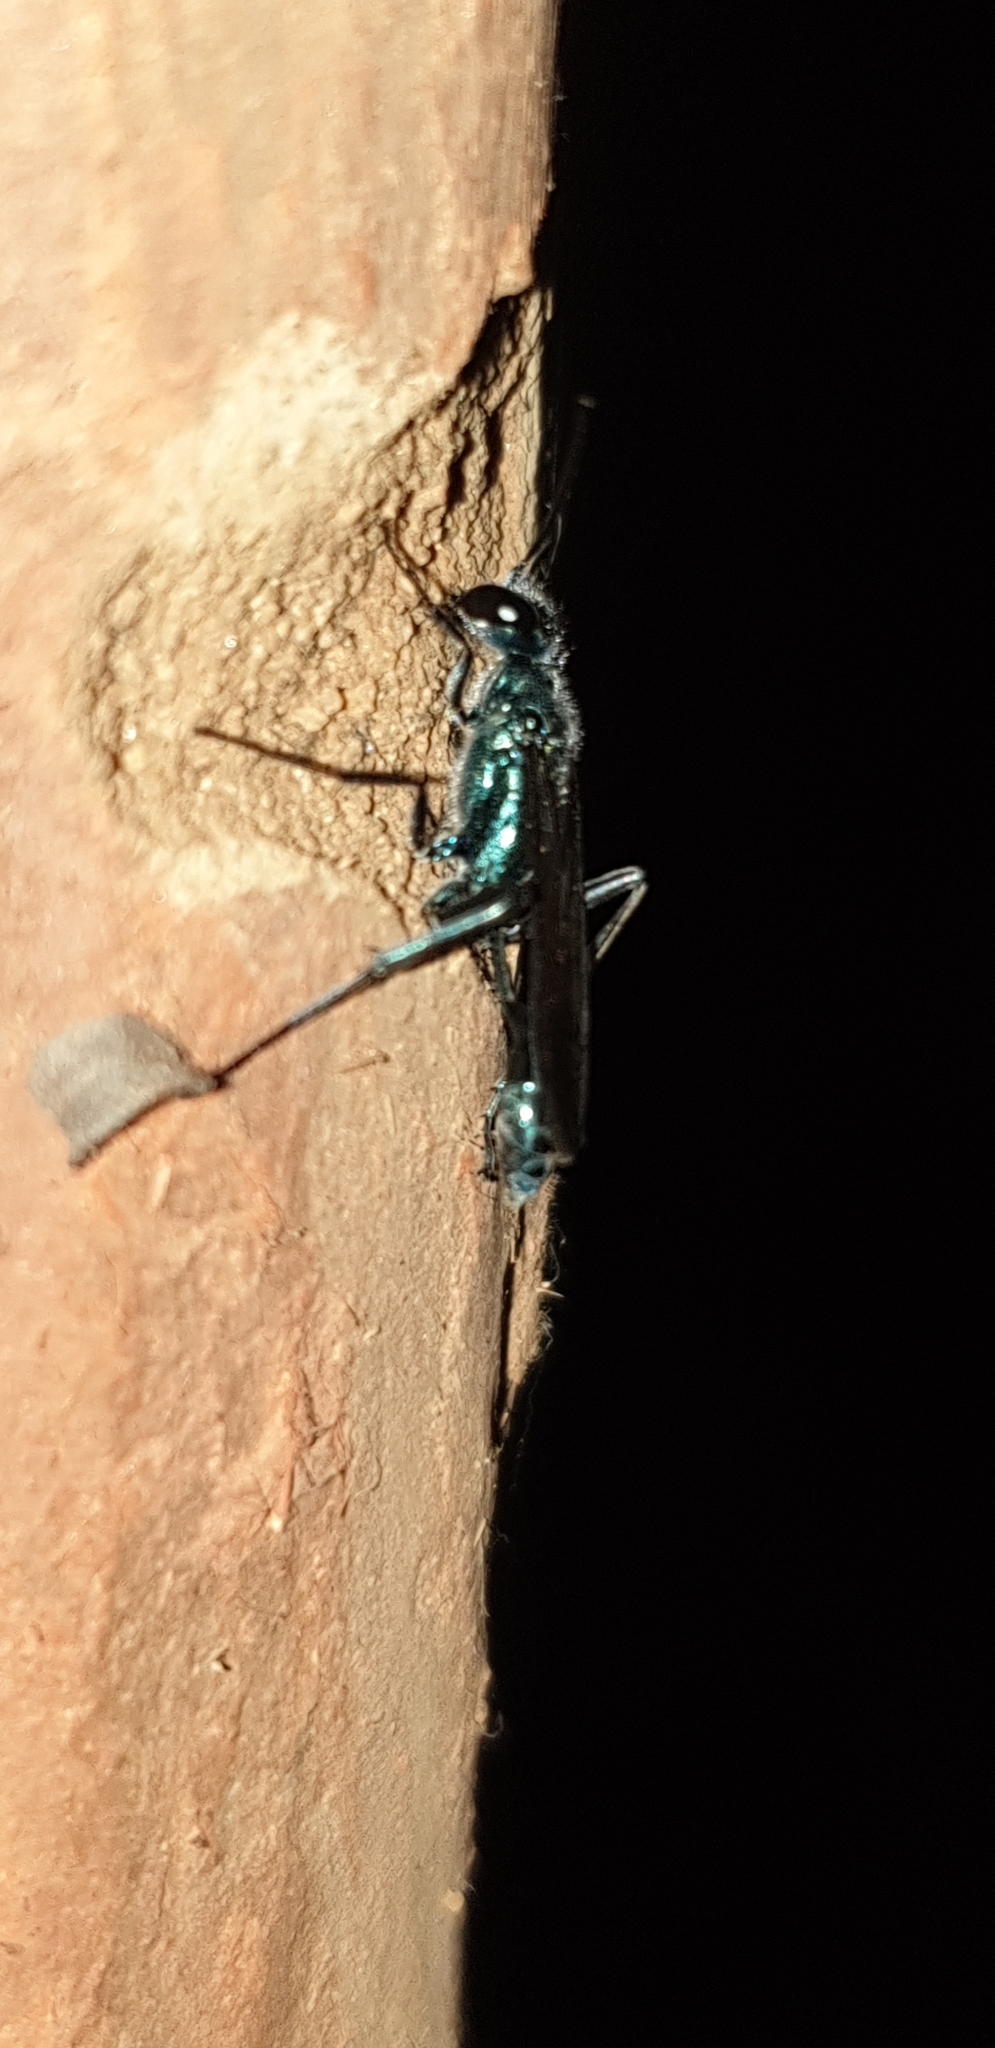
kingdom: Animalia
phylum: Arthropoda
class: Insecta
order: Hymenoptera
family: Sphecidae
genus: Chalybion
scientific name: Chalybion bengalense
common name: Mud dauber
